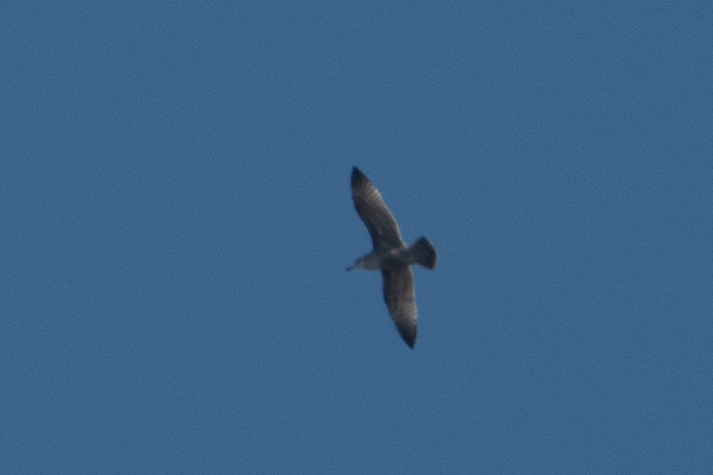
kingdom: Animalia
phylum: Chordata
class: Aves
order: Charadriiformes
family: Laridae
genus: Larus
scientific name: Larus
